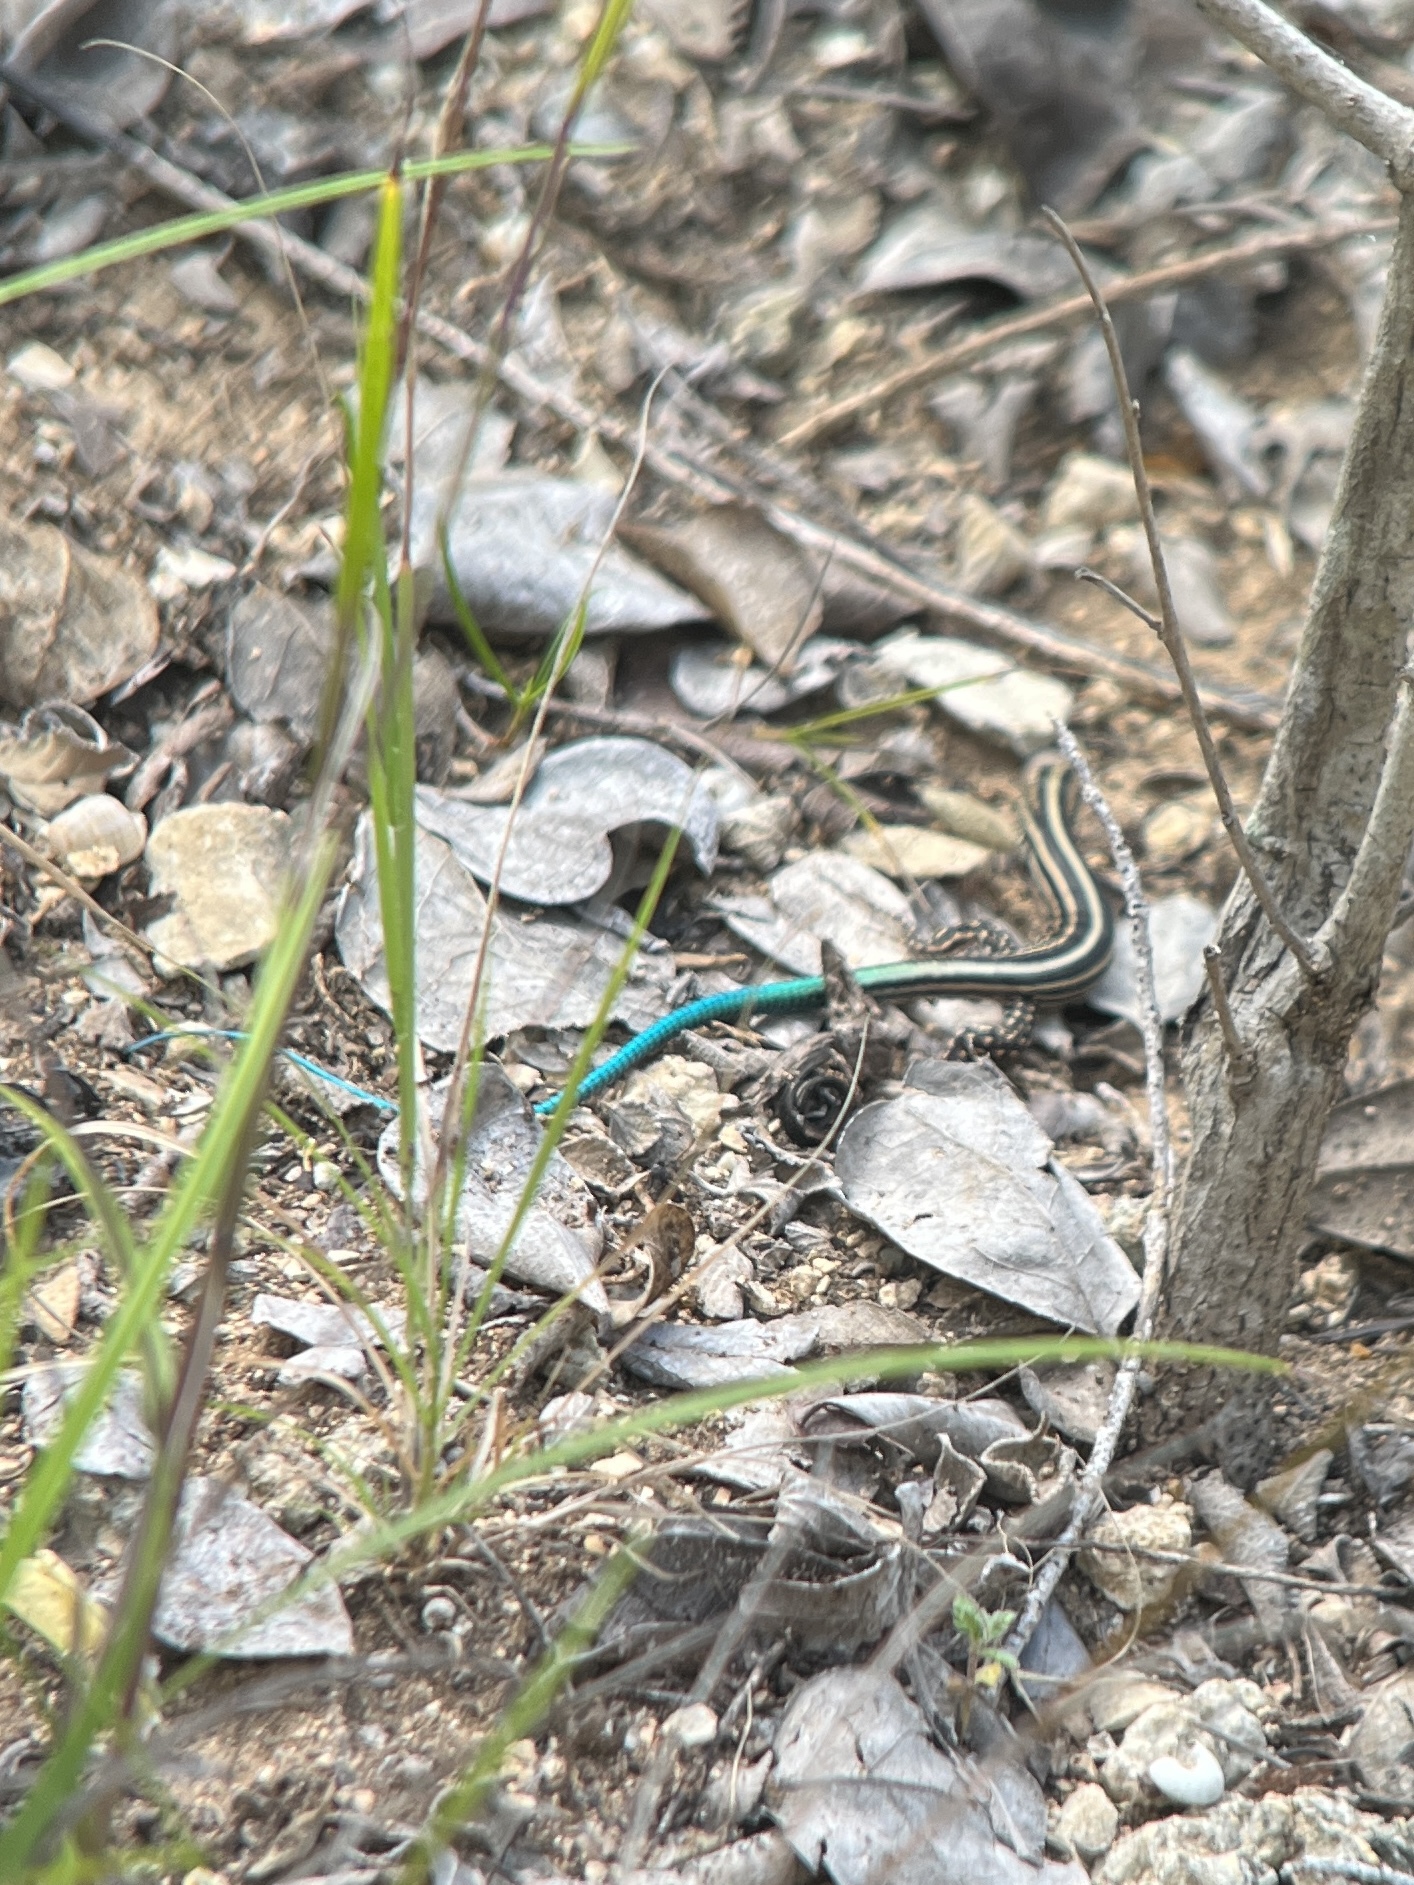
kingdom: Animalia
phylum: Chordata
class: Squamata
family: Teiidae
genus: Pholidoscelis
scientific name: Pholidoscelis wetmorei
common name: Puerto rican blue-tailed ameiva
